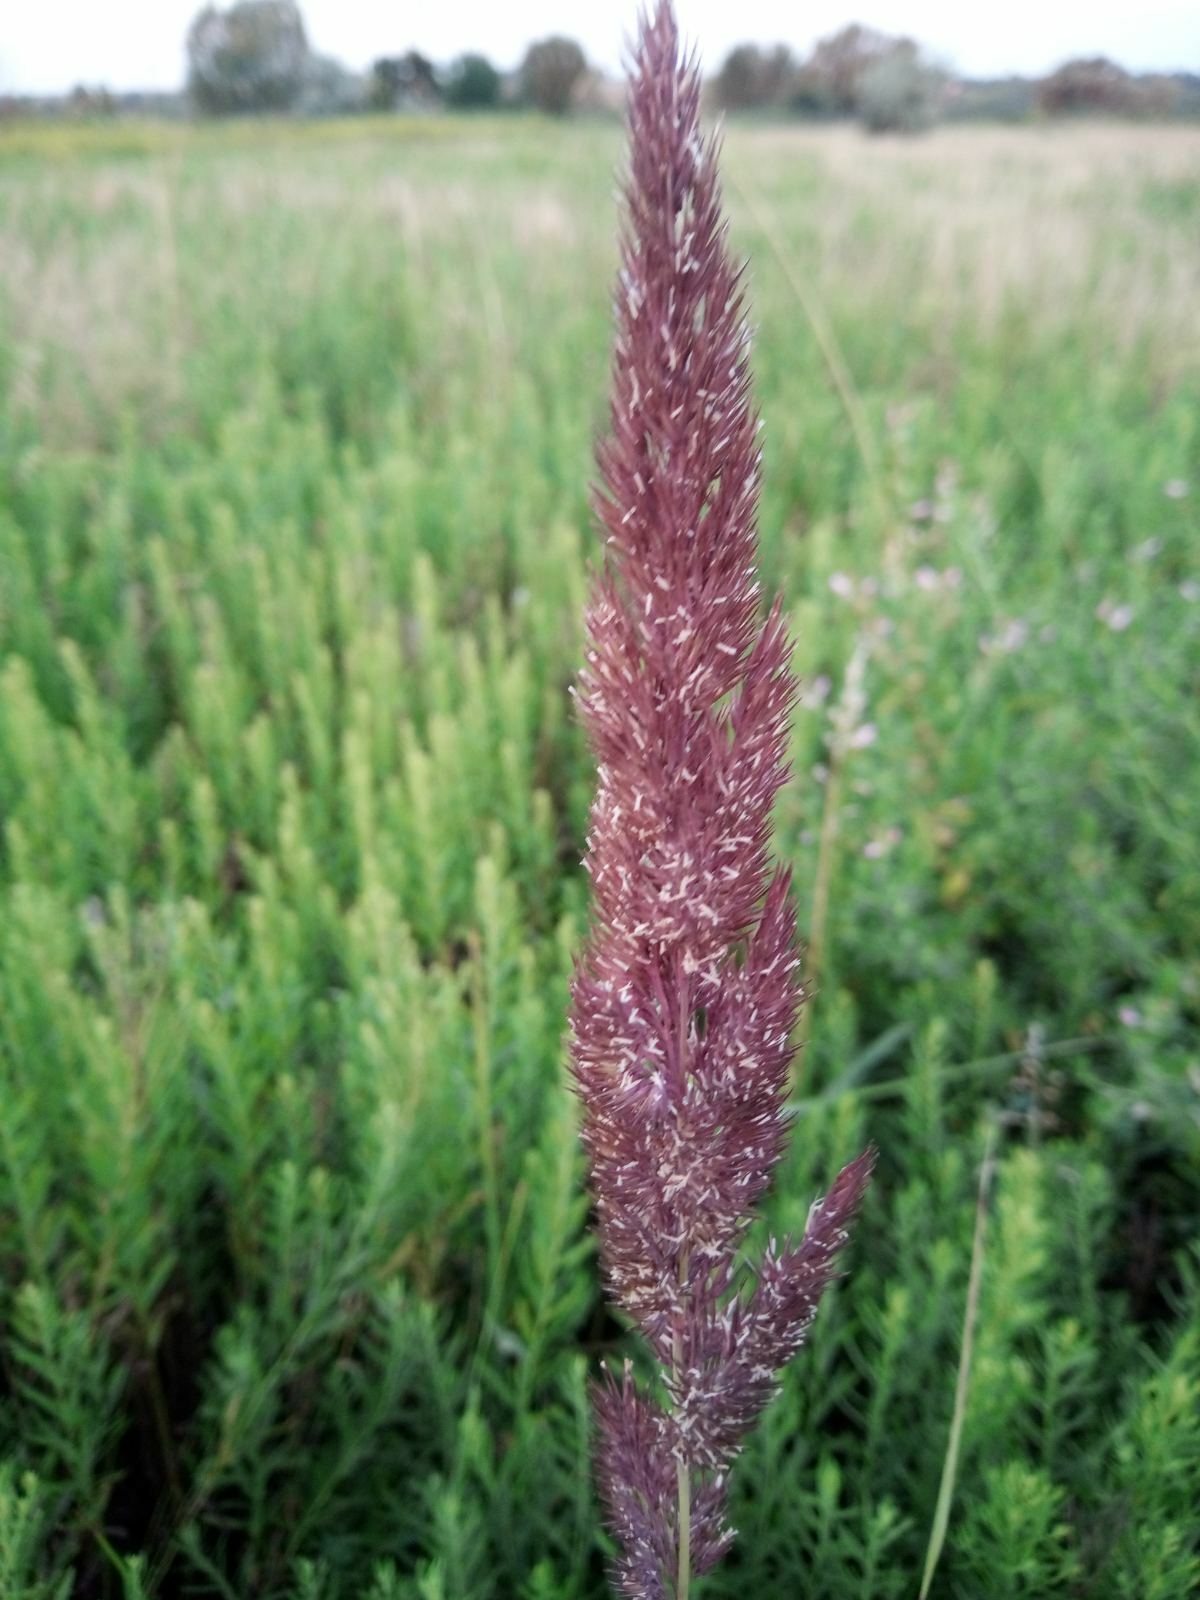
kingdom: Plantae
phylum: Tracheophyta
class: Liliopsida
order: Poales
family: Poaceae
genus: Calamagrostis
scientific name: Calamagrostis epigejos
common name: Wood small-reed
